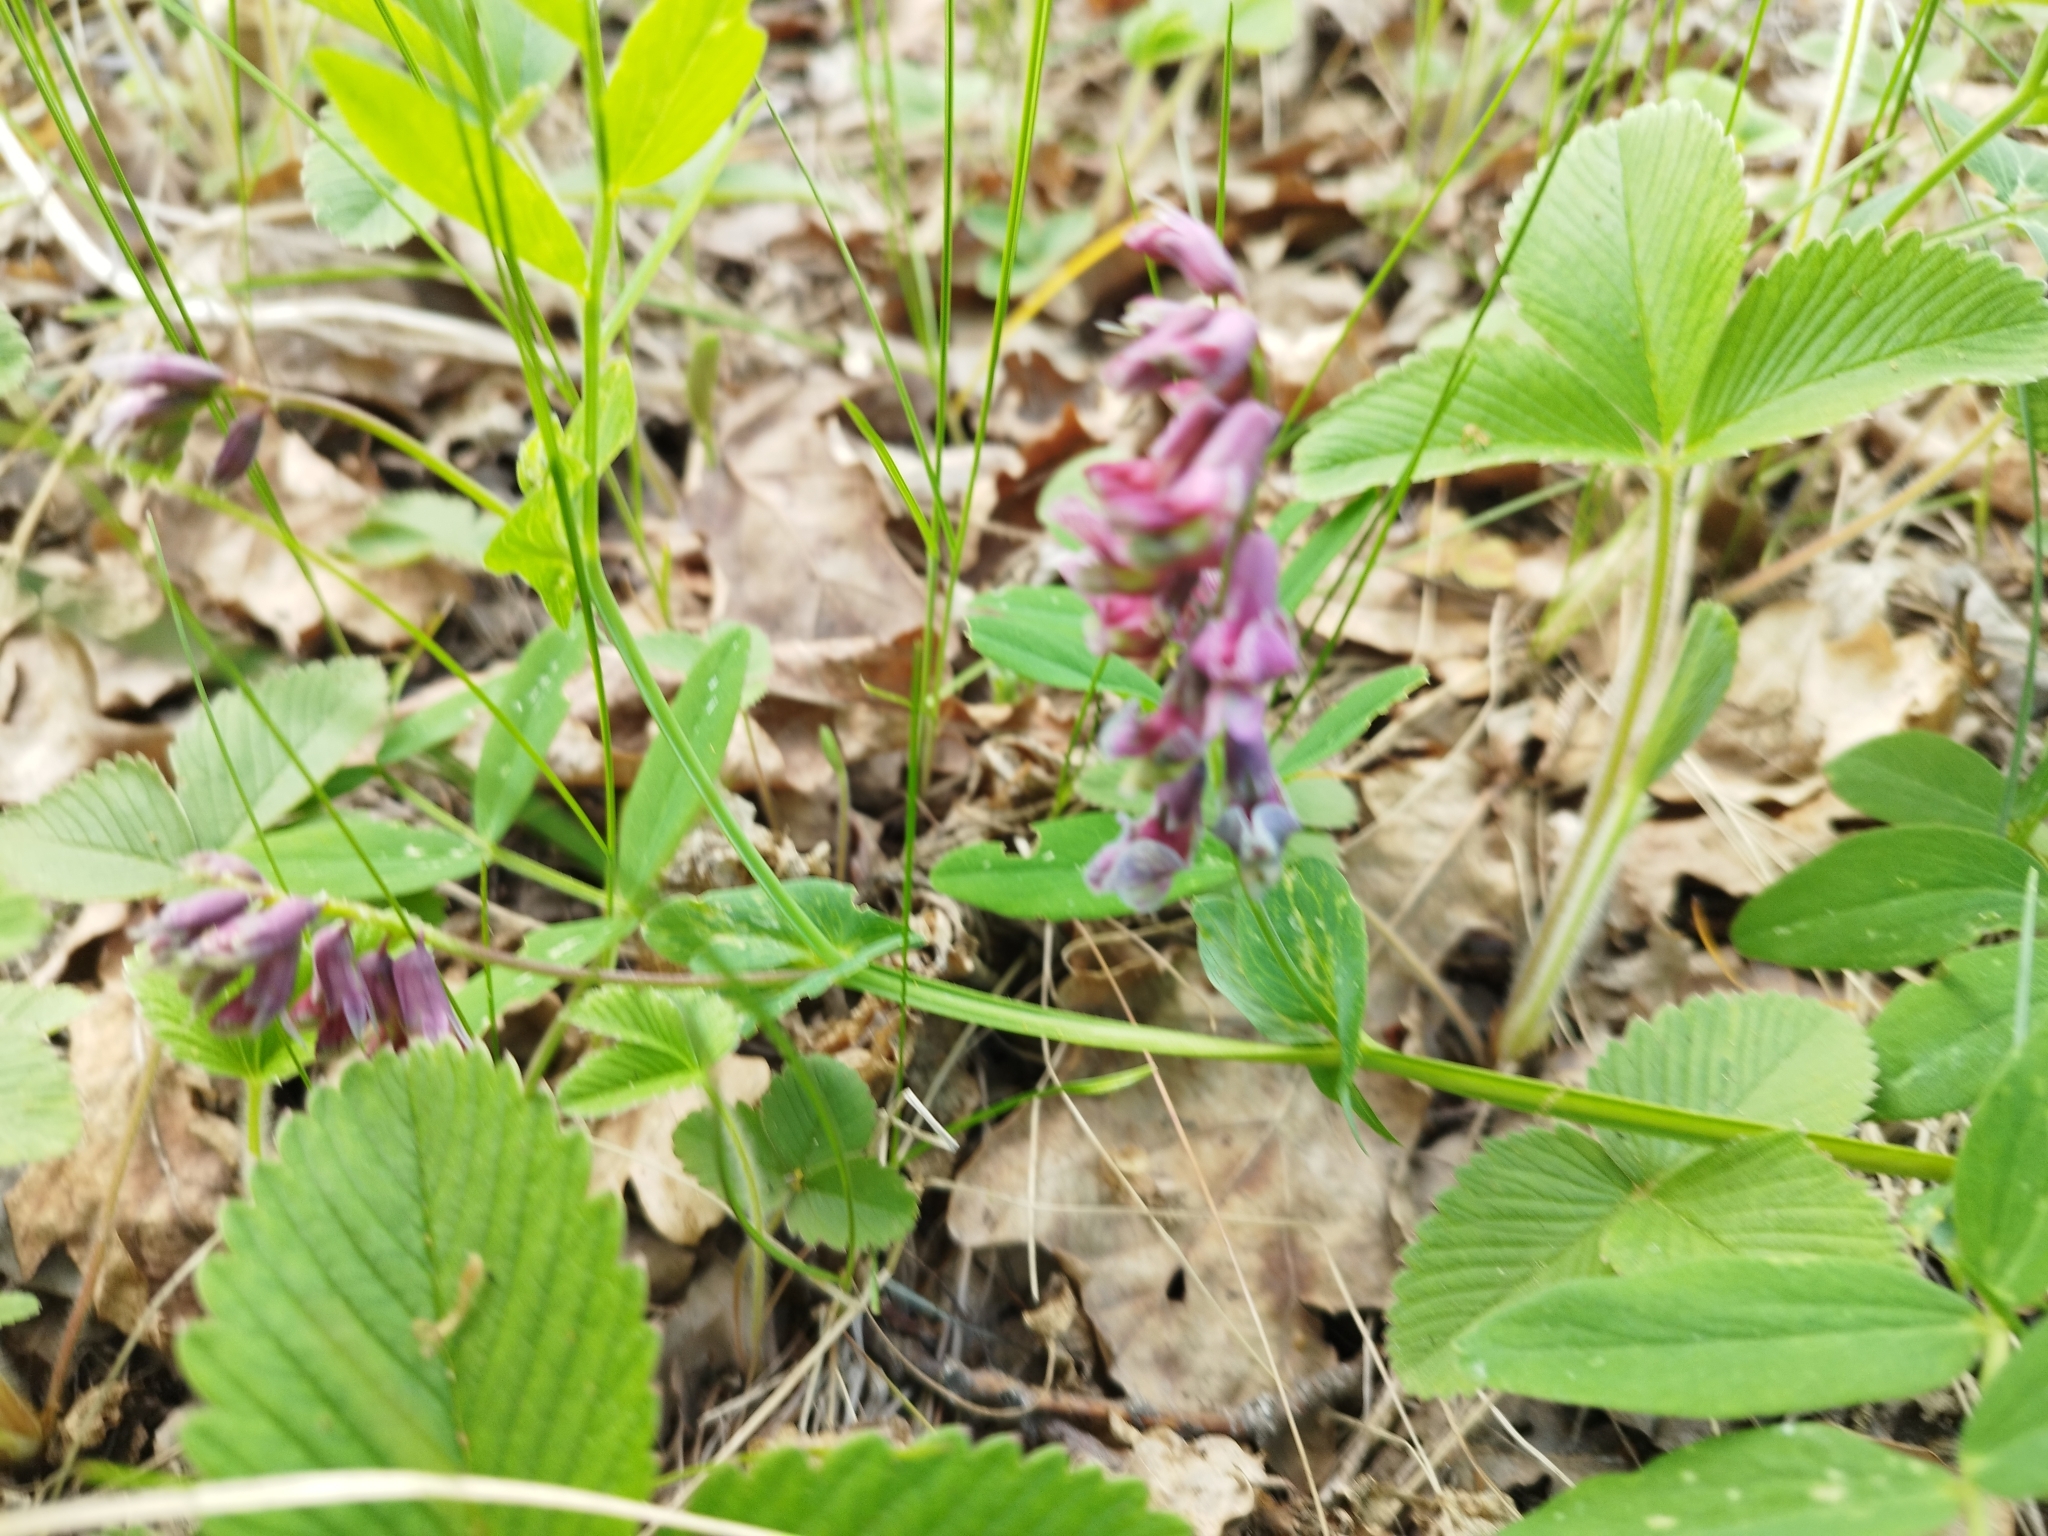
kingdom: Plantae
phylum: Tracheophyta
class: Magnoliopsida
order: Fabales
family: Fabaceae
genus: Lathyrus
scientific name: Lathyrus pisiformis
